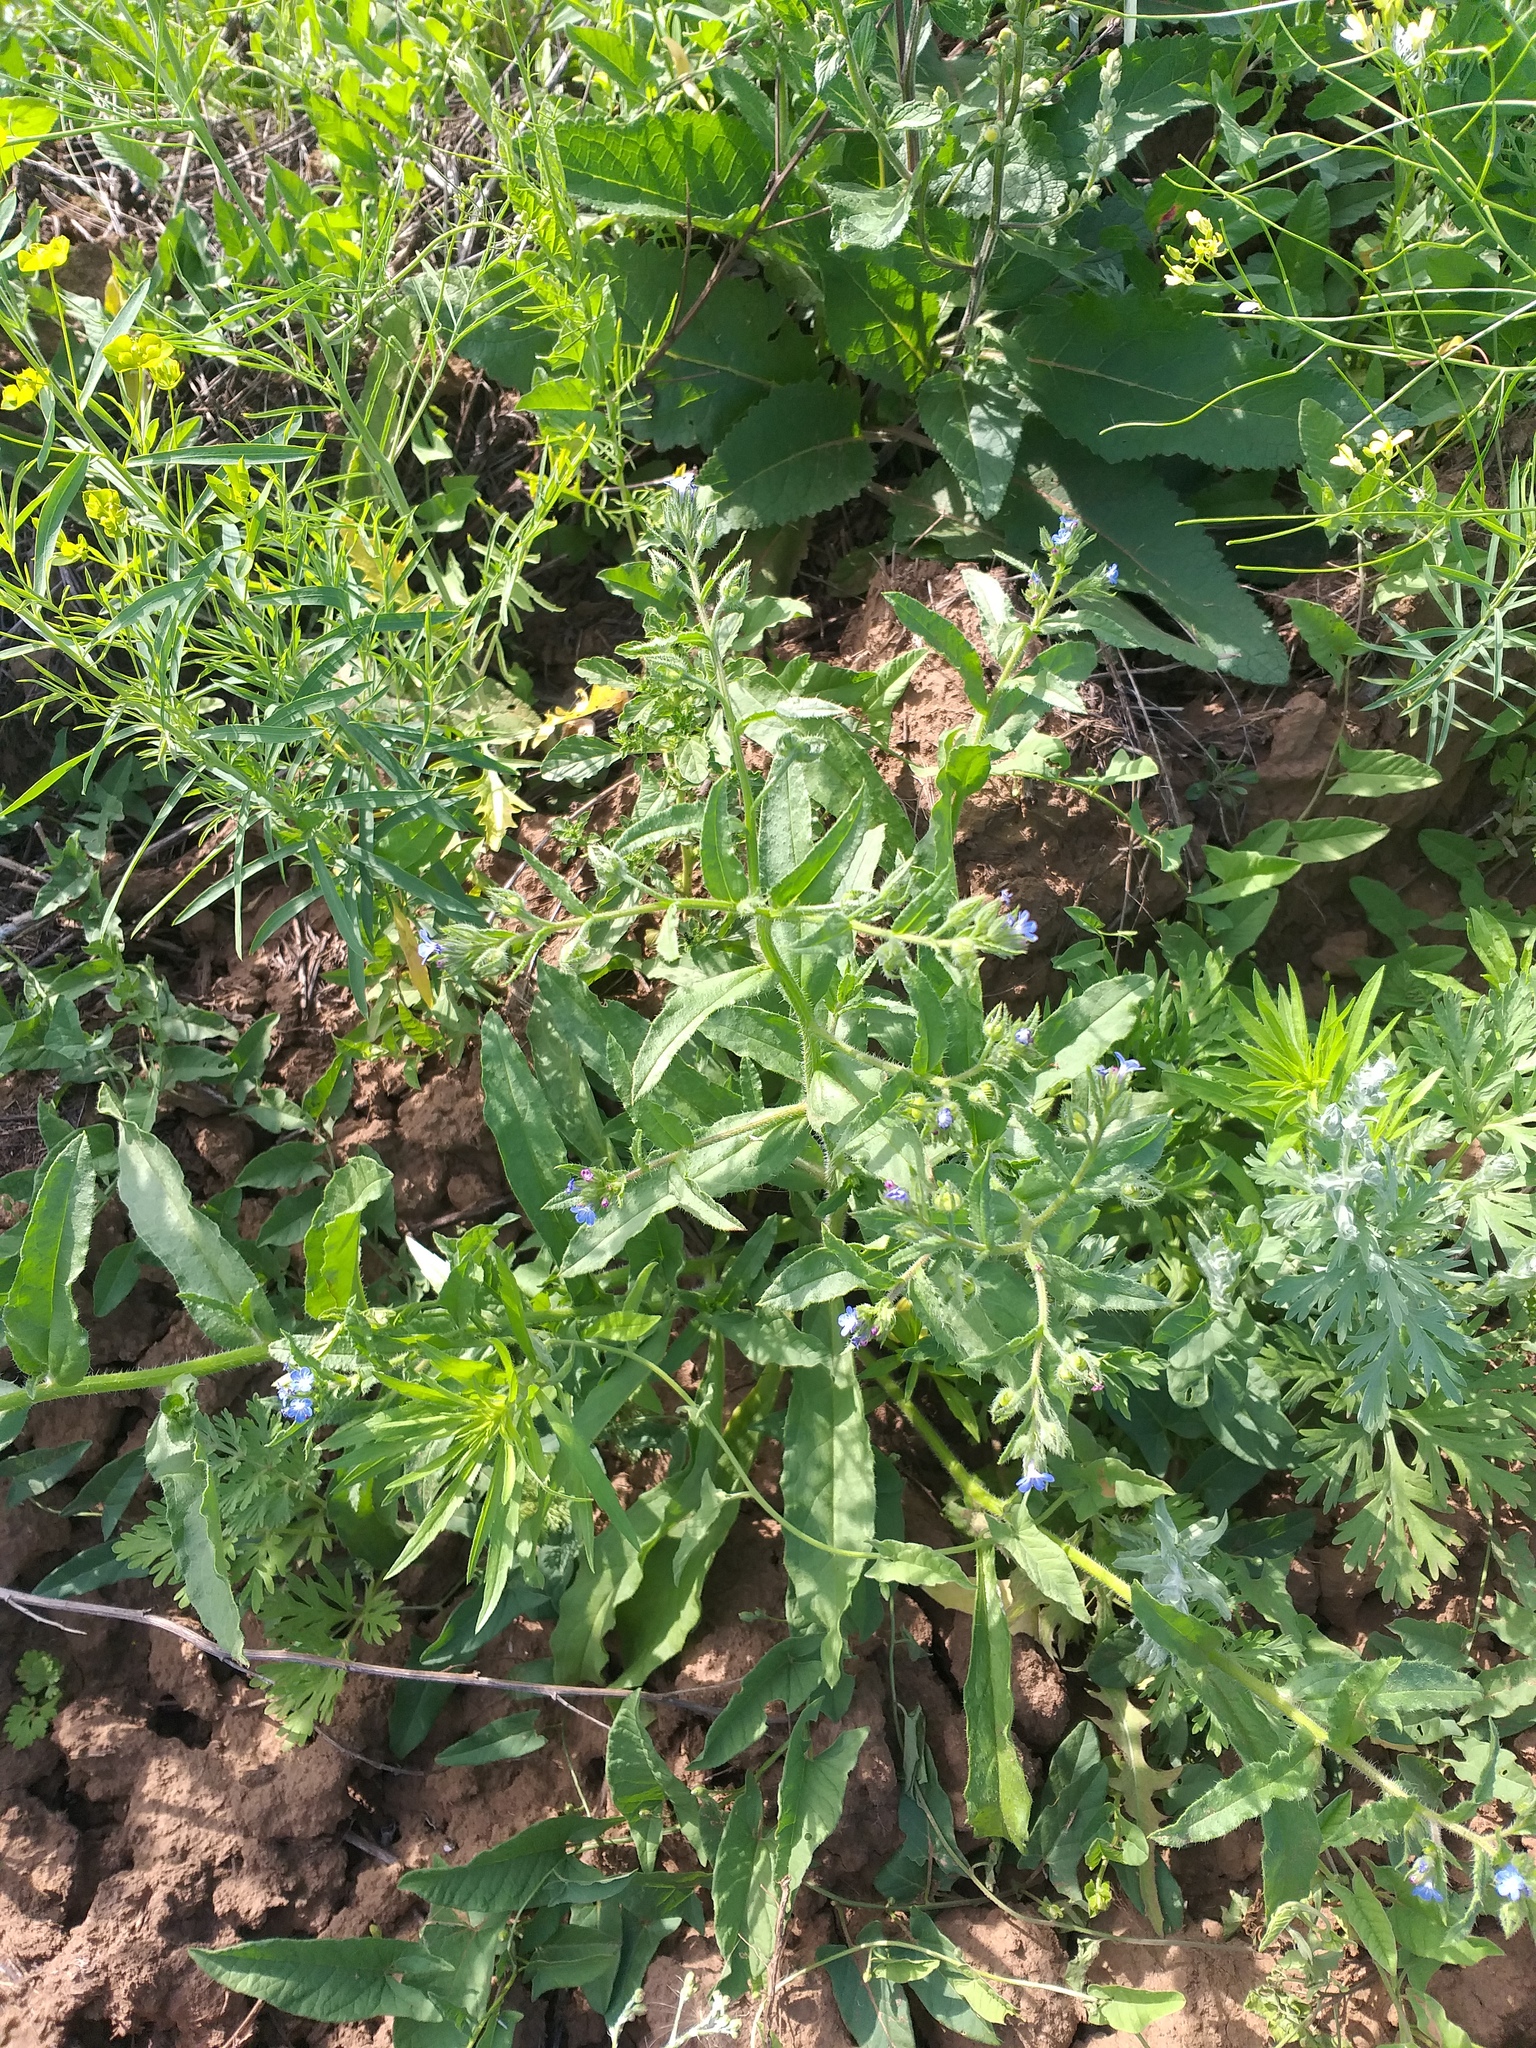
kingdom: Plantae
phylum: Tracheophyta
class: Magnoliopsida
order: Boraginales
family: Boraginaceae
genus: Lycopsis
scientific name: Lycopsis arvensis
